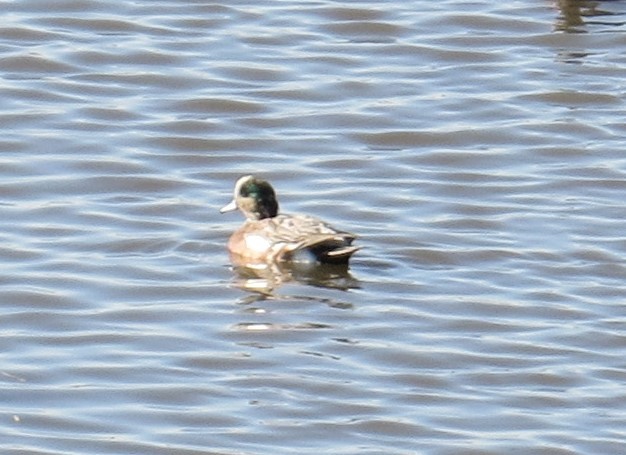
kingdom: Animalia
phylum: Chordata
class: Aves
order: Anseriformes
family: Anatidae
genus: Mareca
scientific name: Mareca americana
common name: American wigeon
